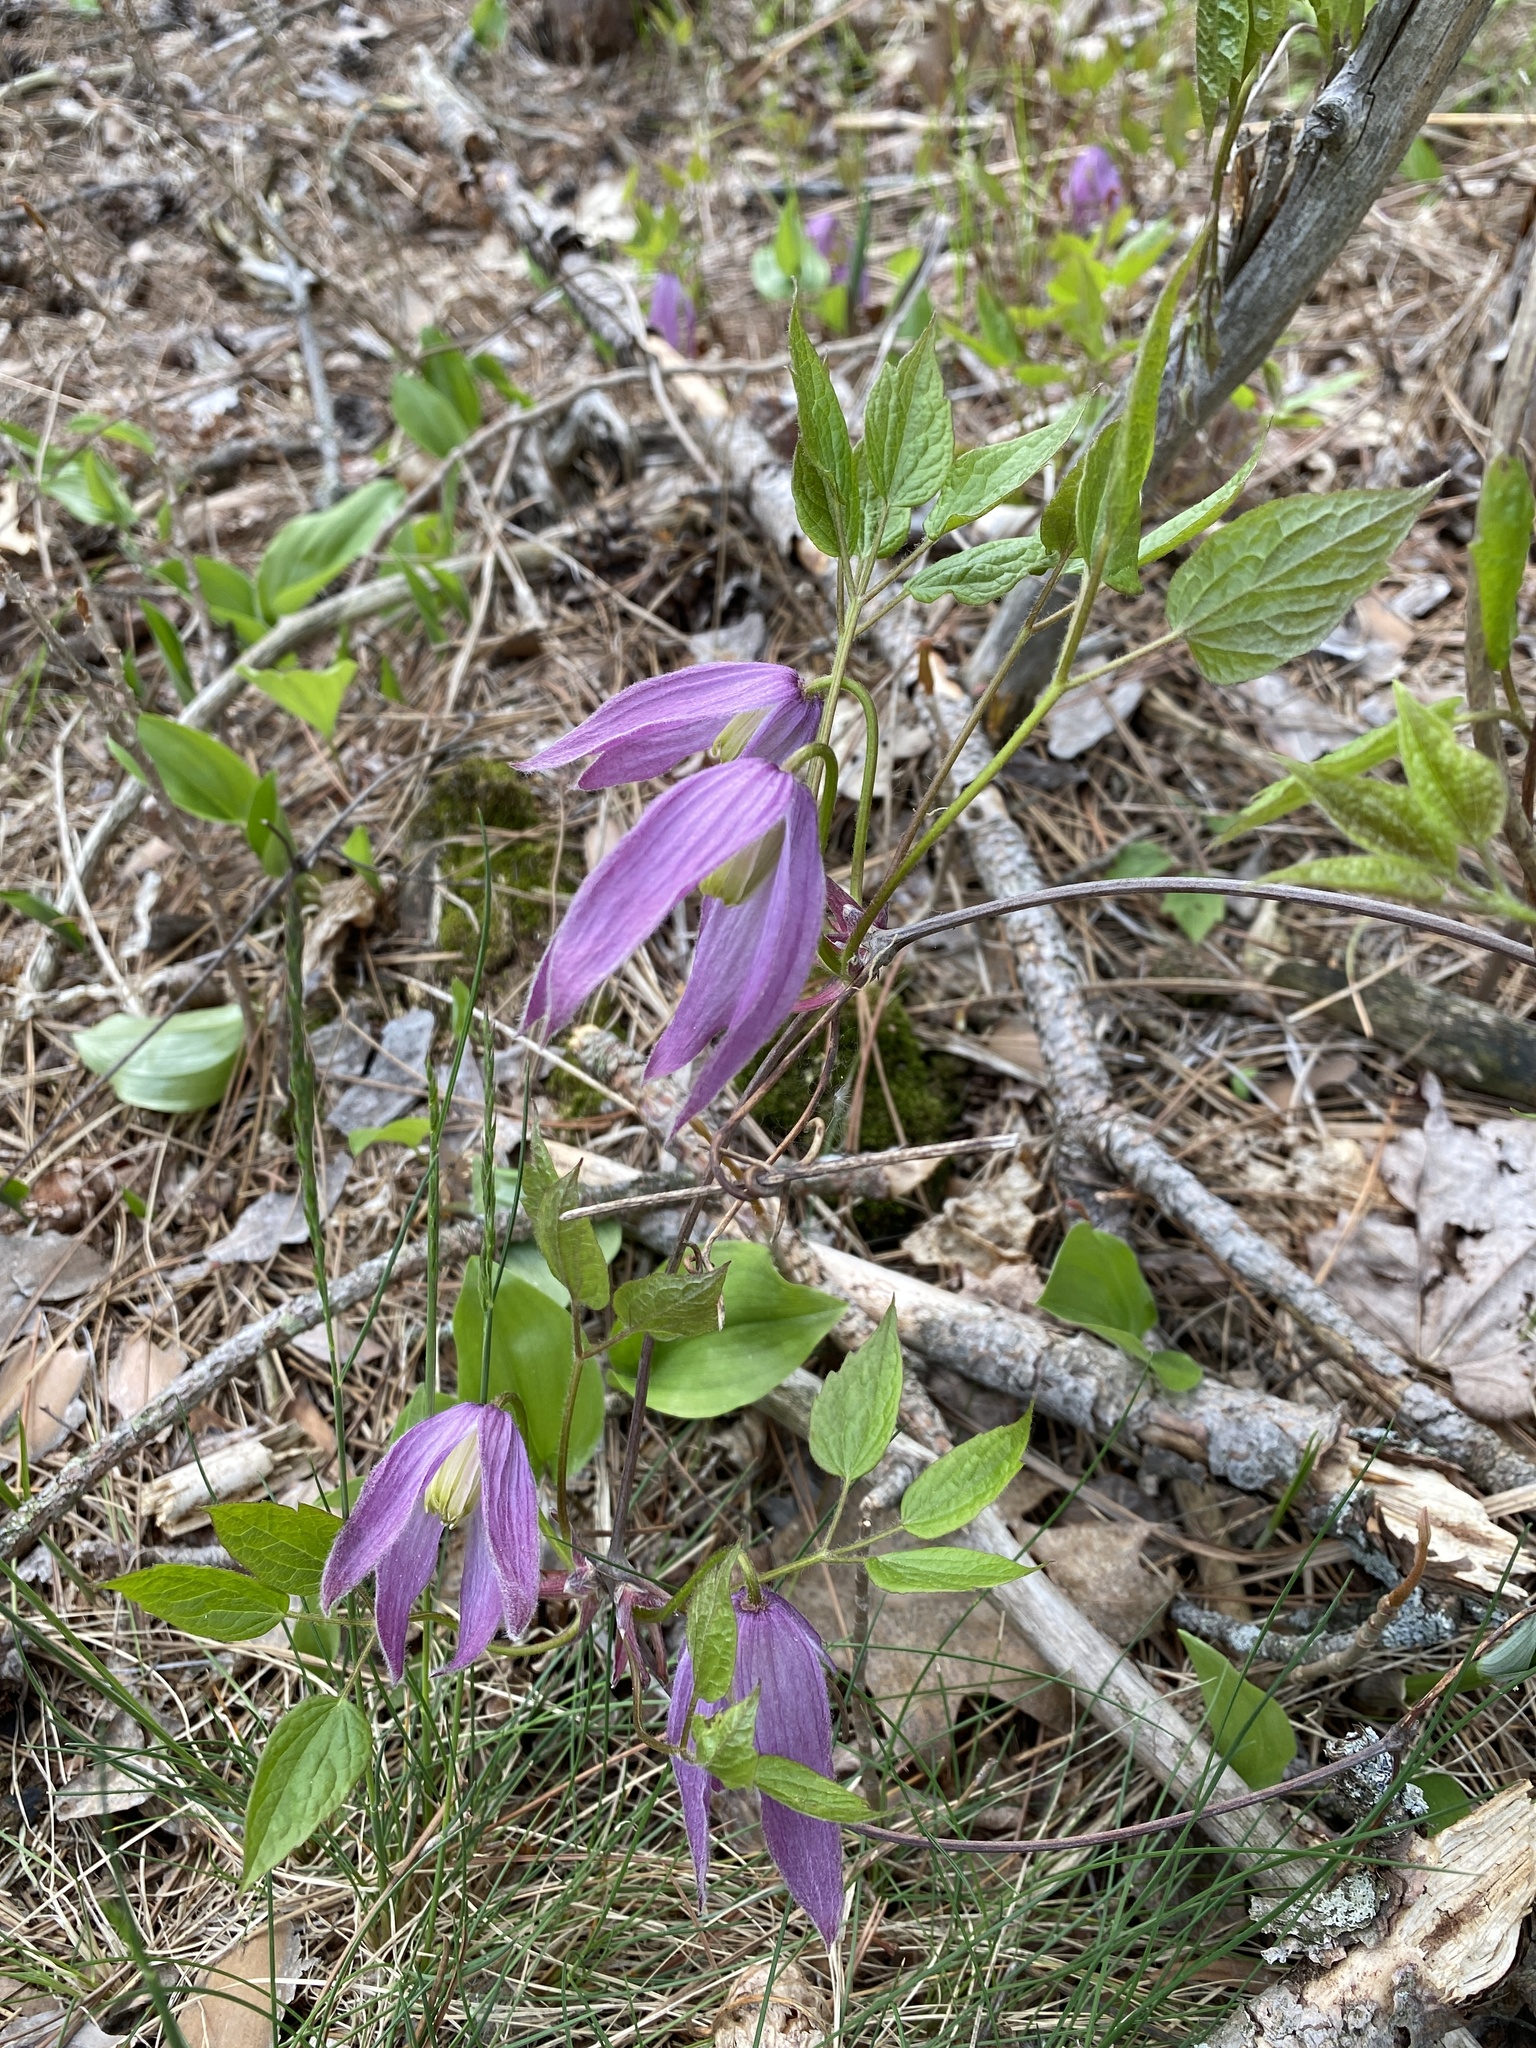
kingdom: Plantae
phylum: Tracheophyta
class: Magnoliopsida
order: Ranunculales
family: Ranunculaceae
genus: Clematis
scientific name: Clematis occidentalis
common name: Purple clematis
